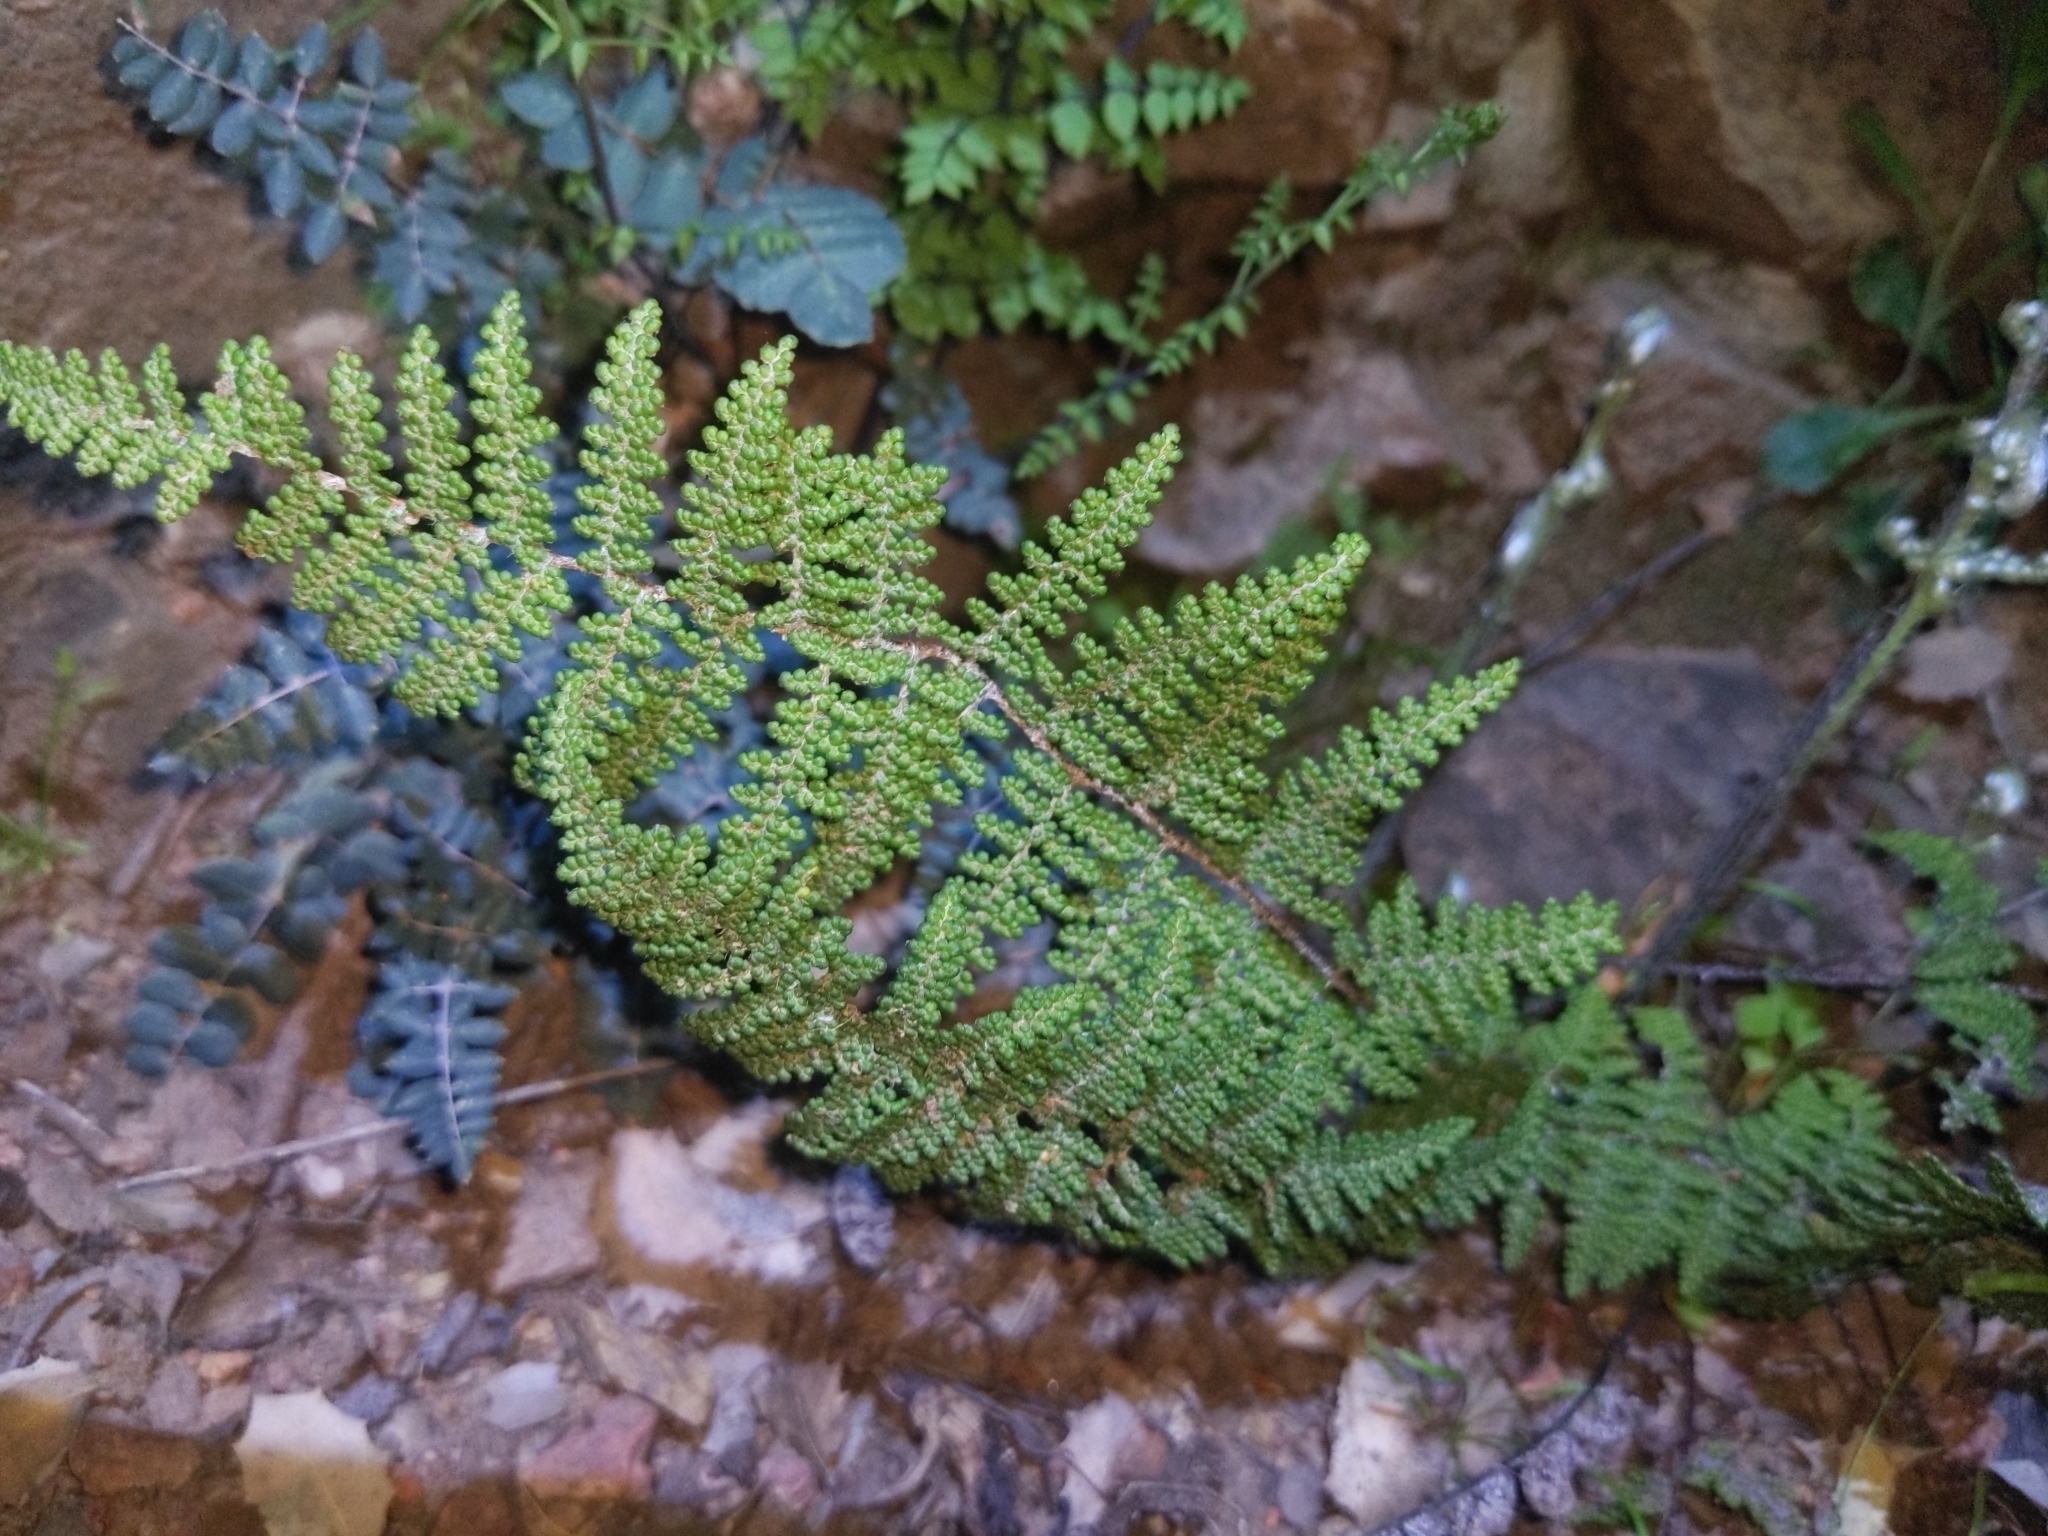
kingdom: Plantae
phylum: Tracheophyta
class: Polypodiopsida
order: Polypodiales
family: Pteridaceae
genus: Myriopteris
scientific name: Myriopteris wootonii
